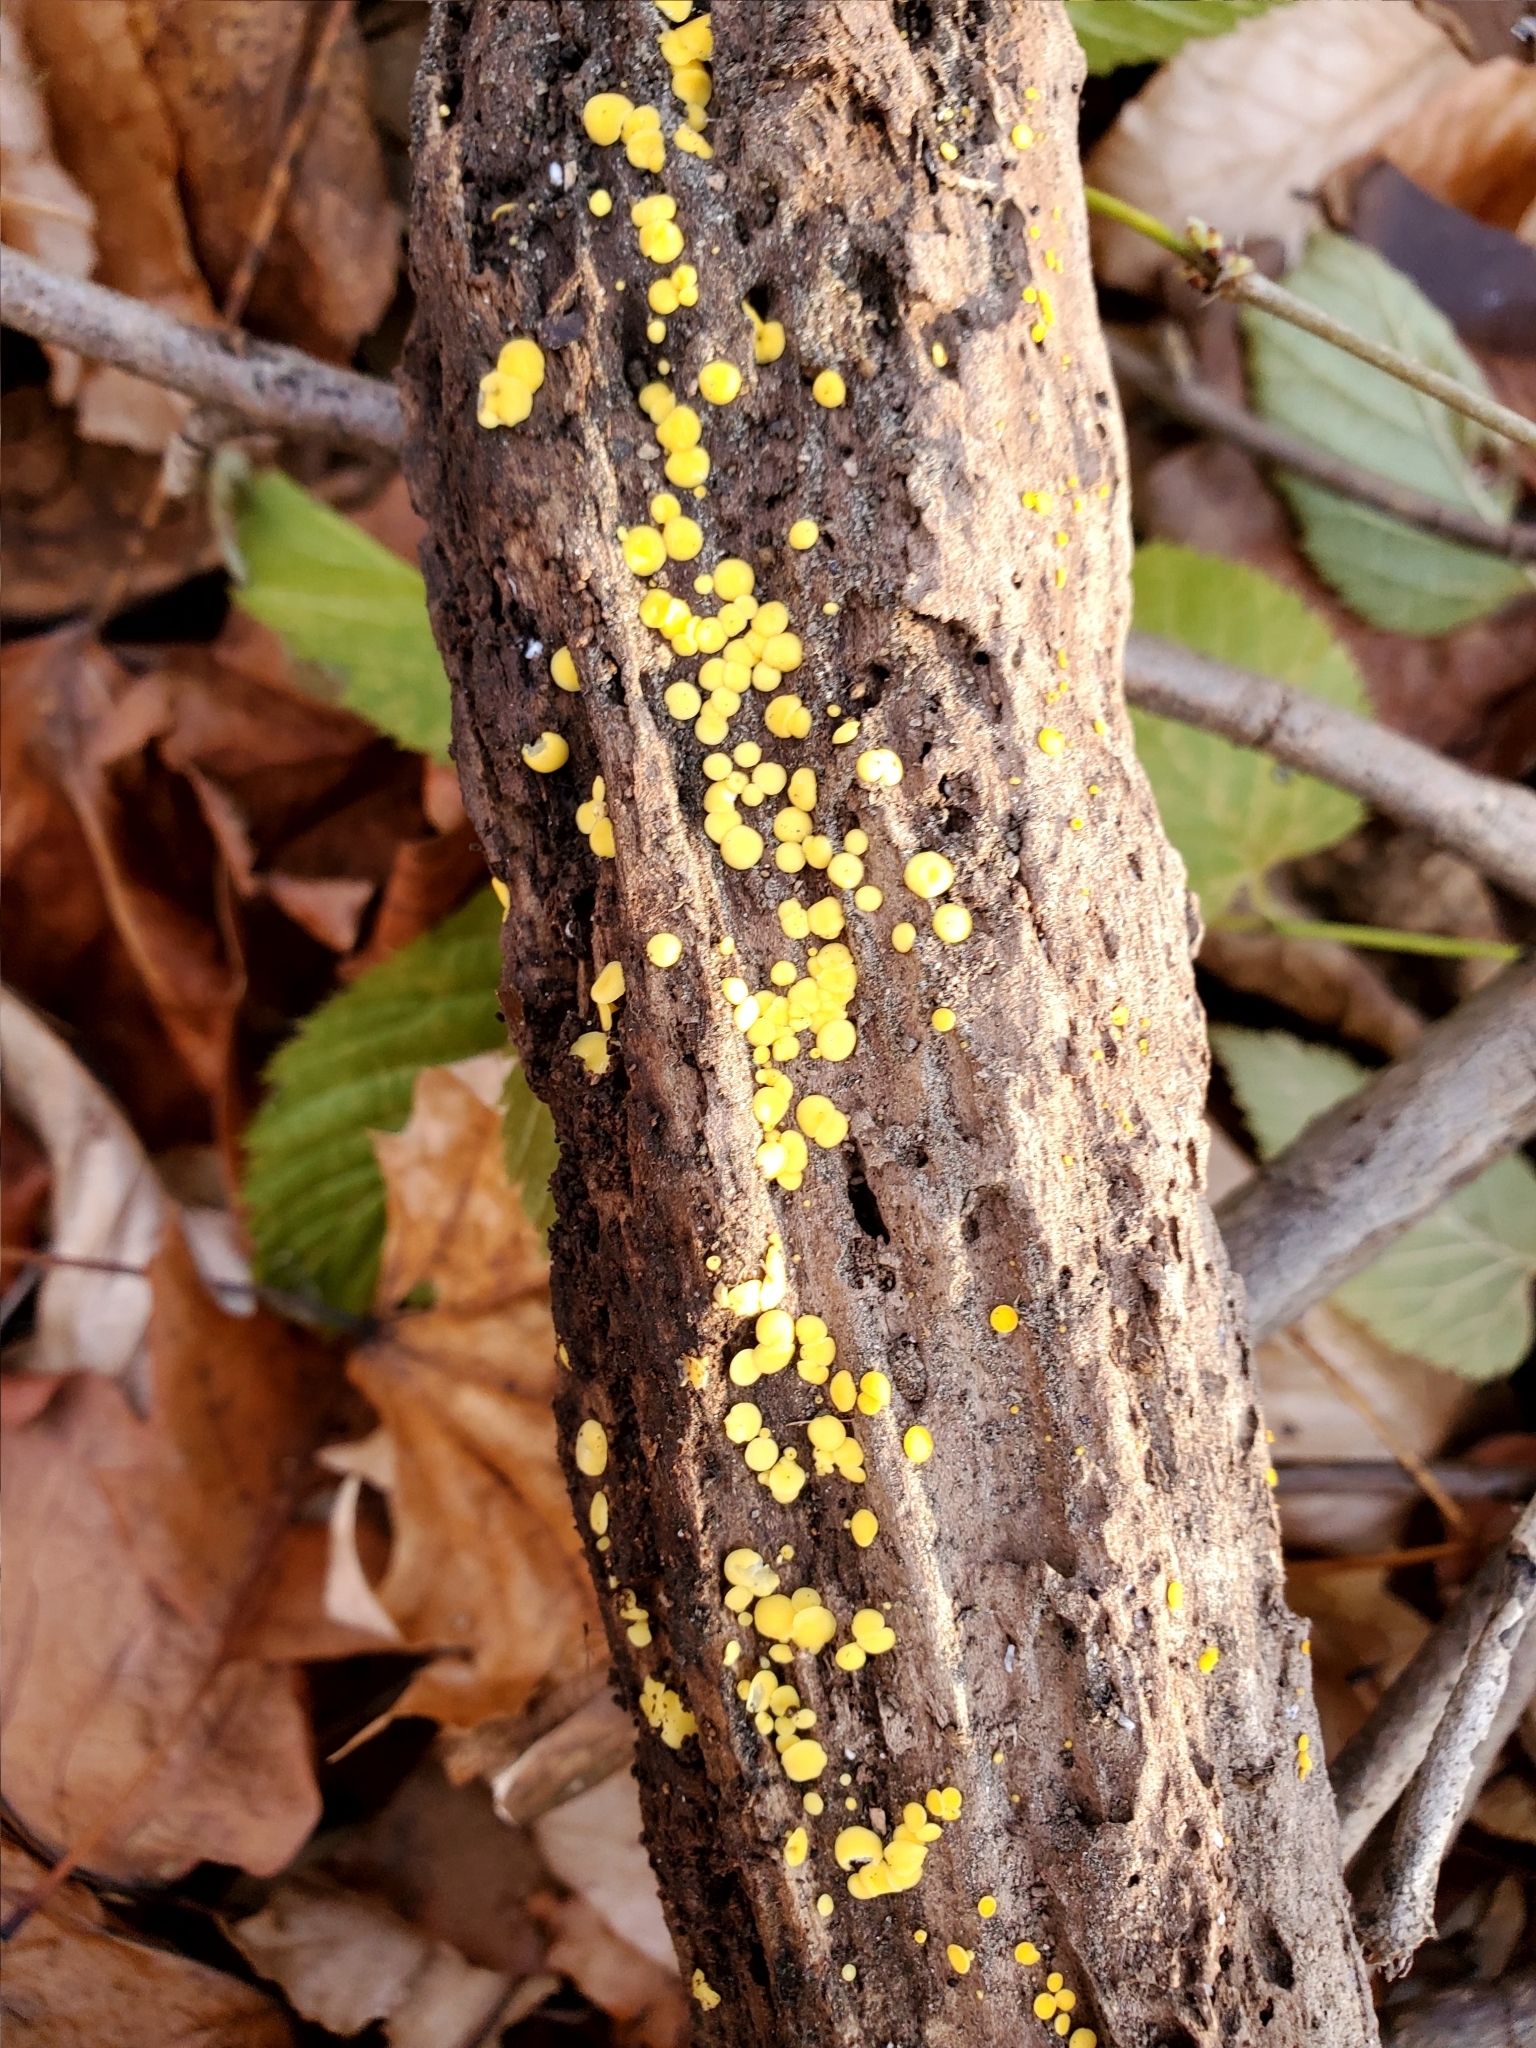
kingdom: Fungi
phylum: Ascomycota
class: Leotiomycetes
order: Helotiales
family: Pezizellaceae
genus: Calycina
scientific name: Calycina citrina
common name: Yellow fairy cups
